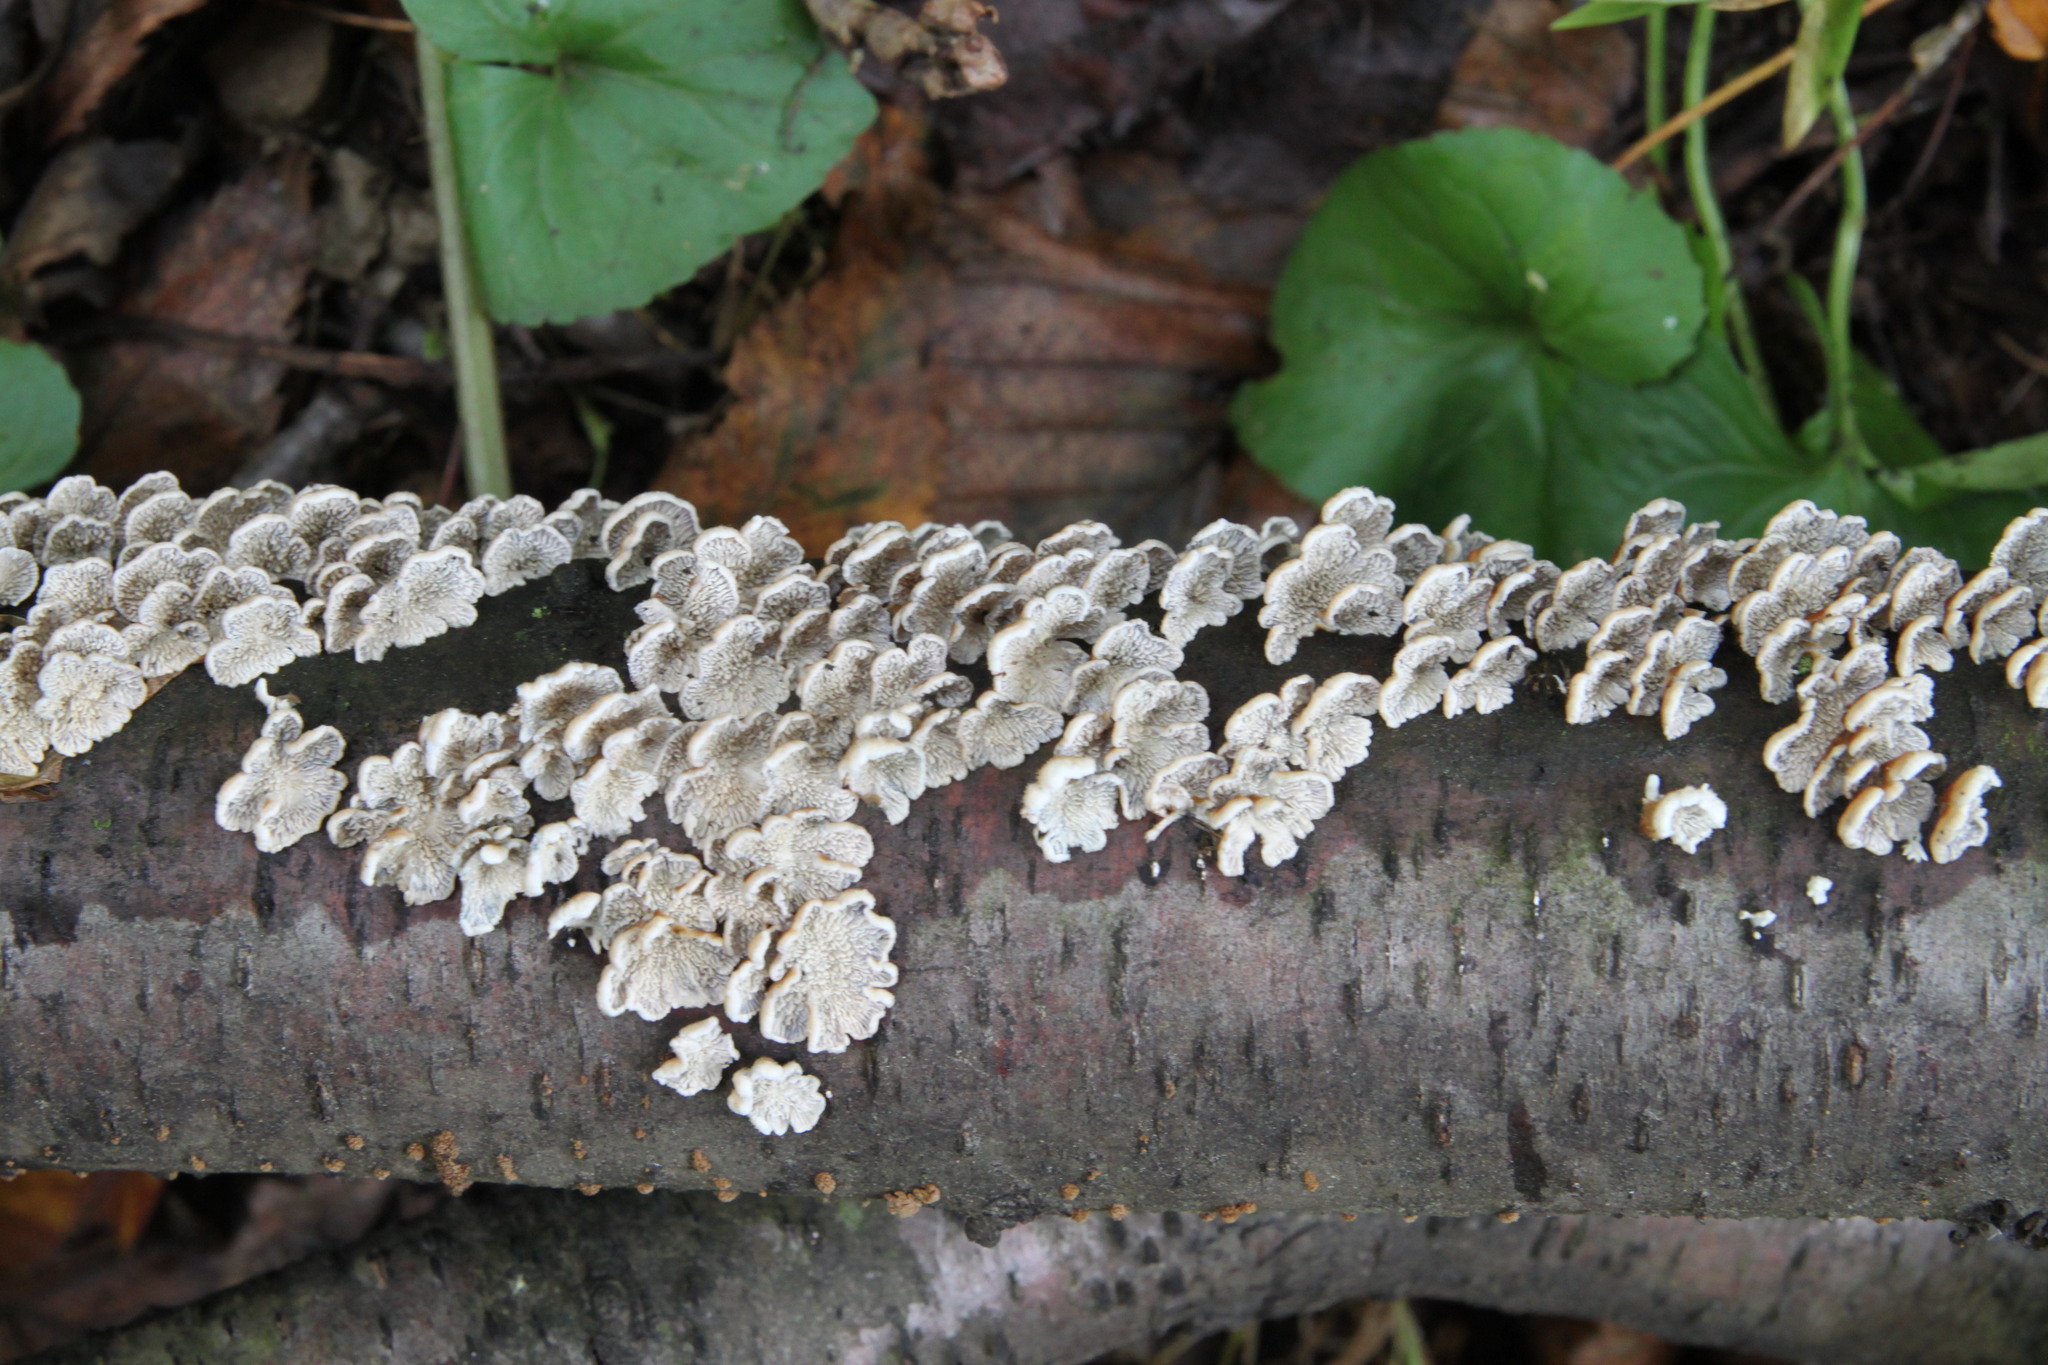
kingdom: Fungi
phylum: Basidiomycota
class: Agaricomycetes
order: Amylocorticiales
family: Amylocorticiaceae
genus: Plicaturopsis
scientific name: Plicaturopsis crispa
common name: Crimped gill
